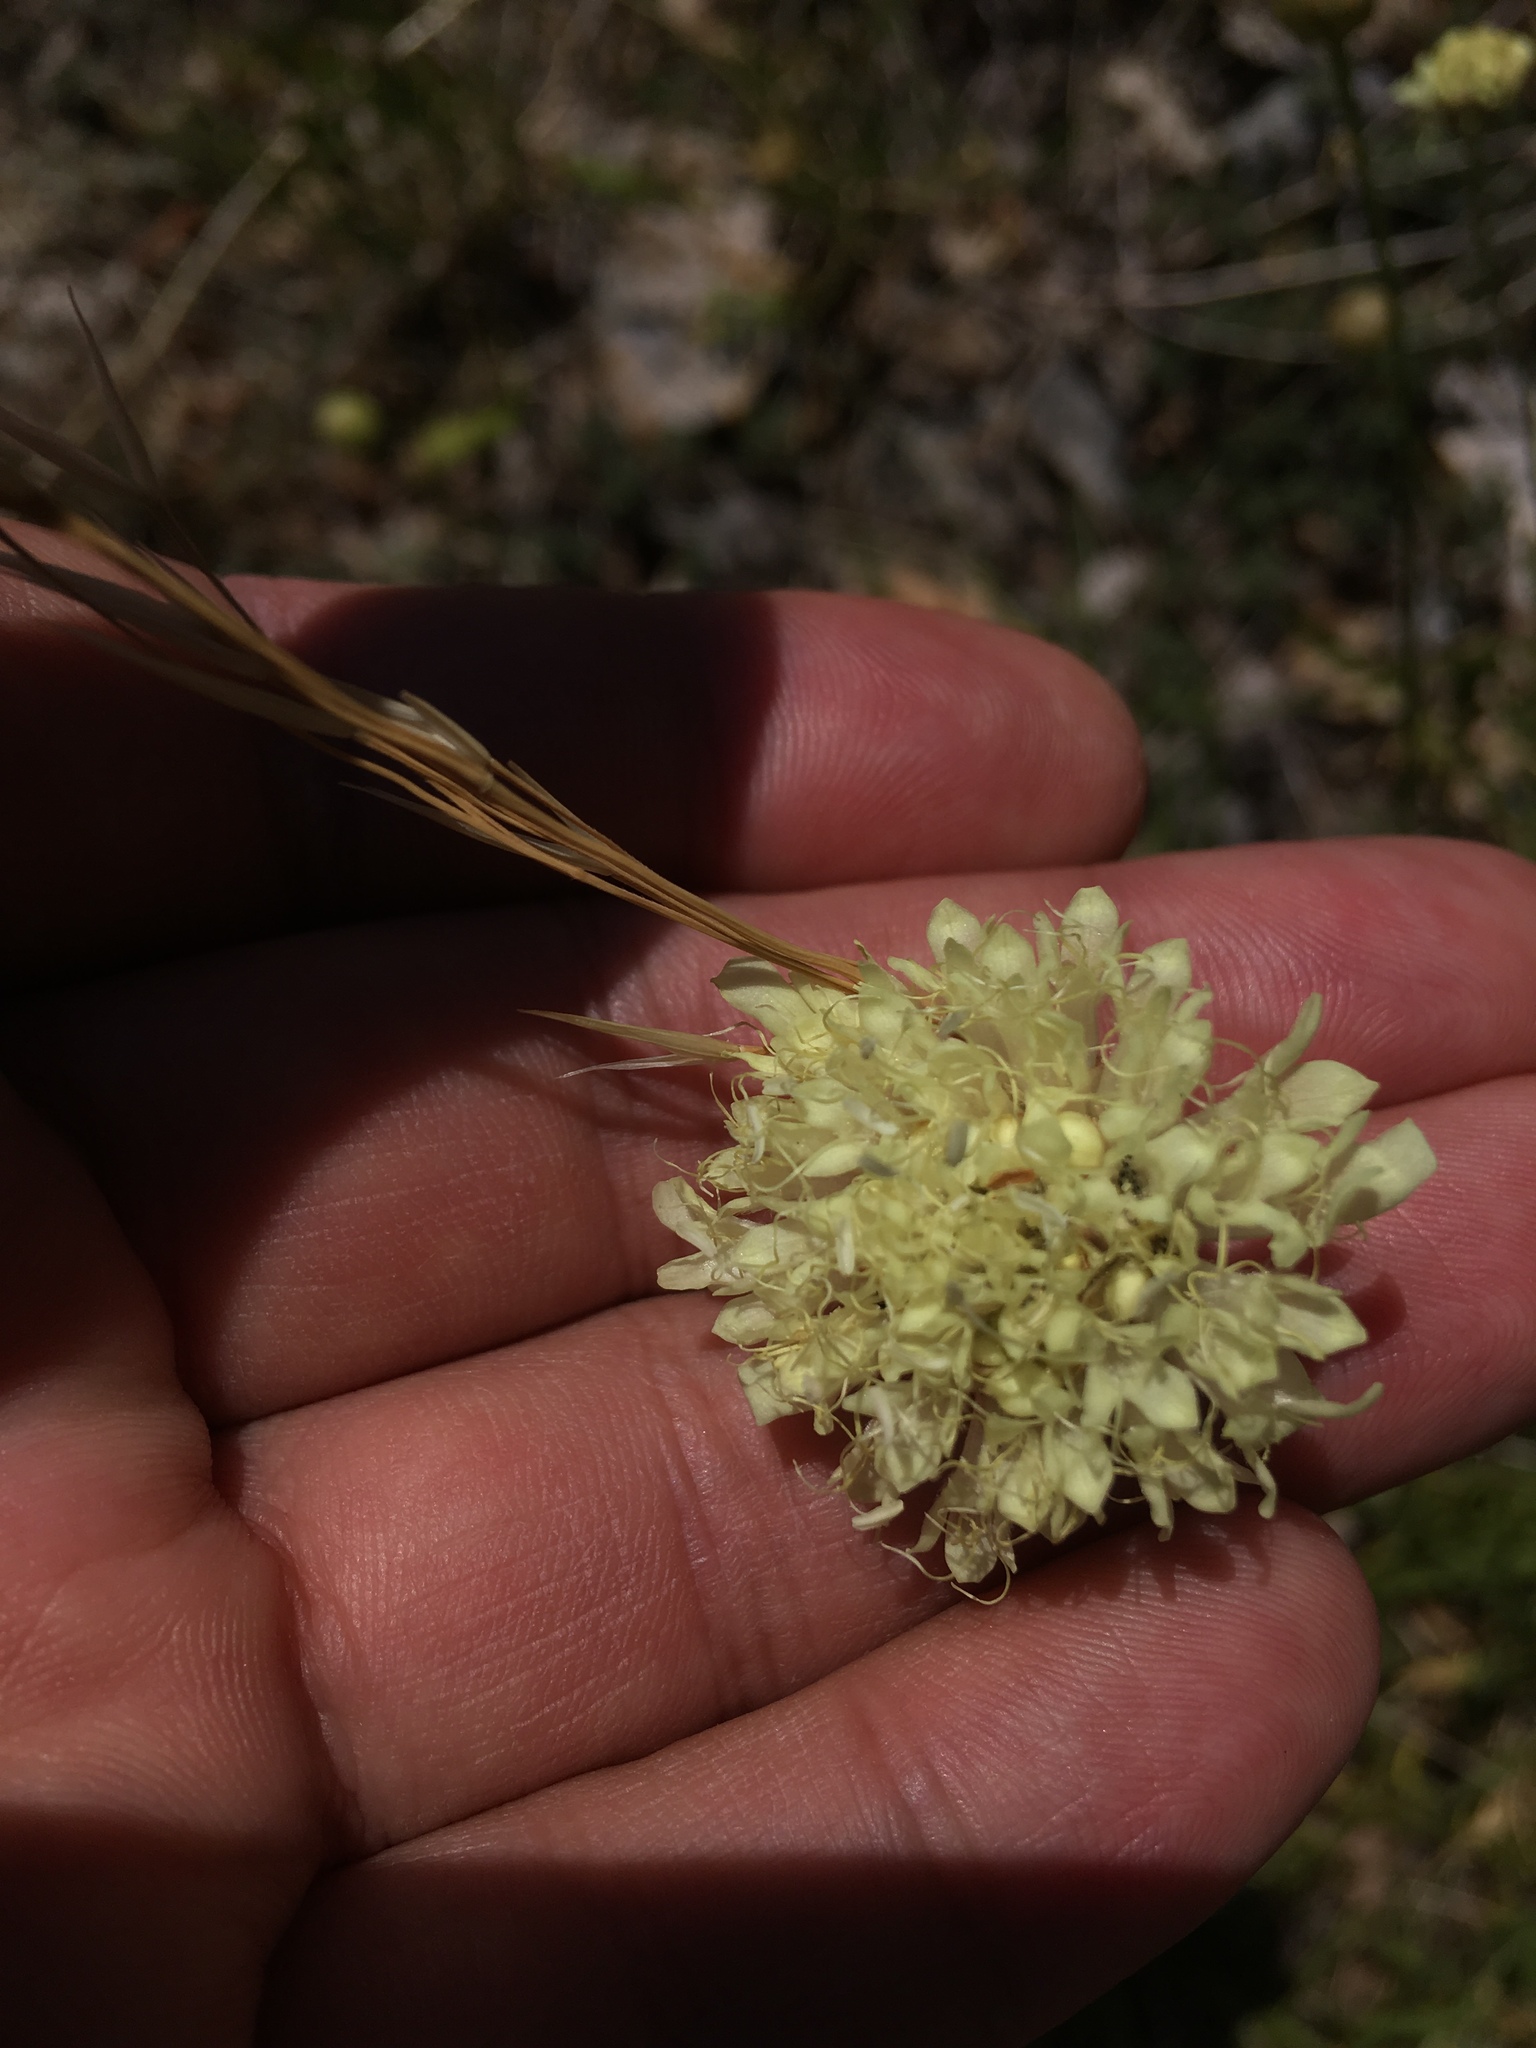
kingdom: Plantae
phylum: Tracheophyta
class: Magnoliopsida
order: Dipsacales
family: Caprifoliaceae
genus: Cephalaria
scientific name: Cephalaria coriacea
